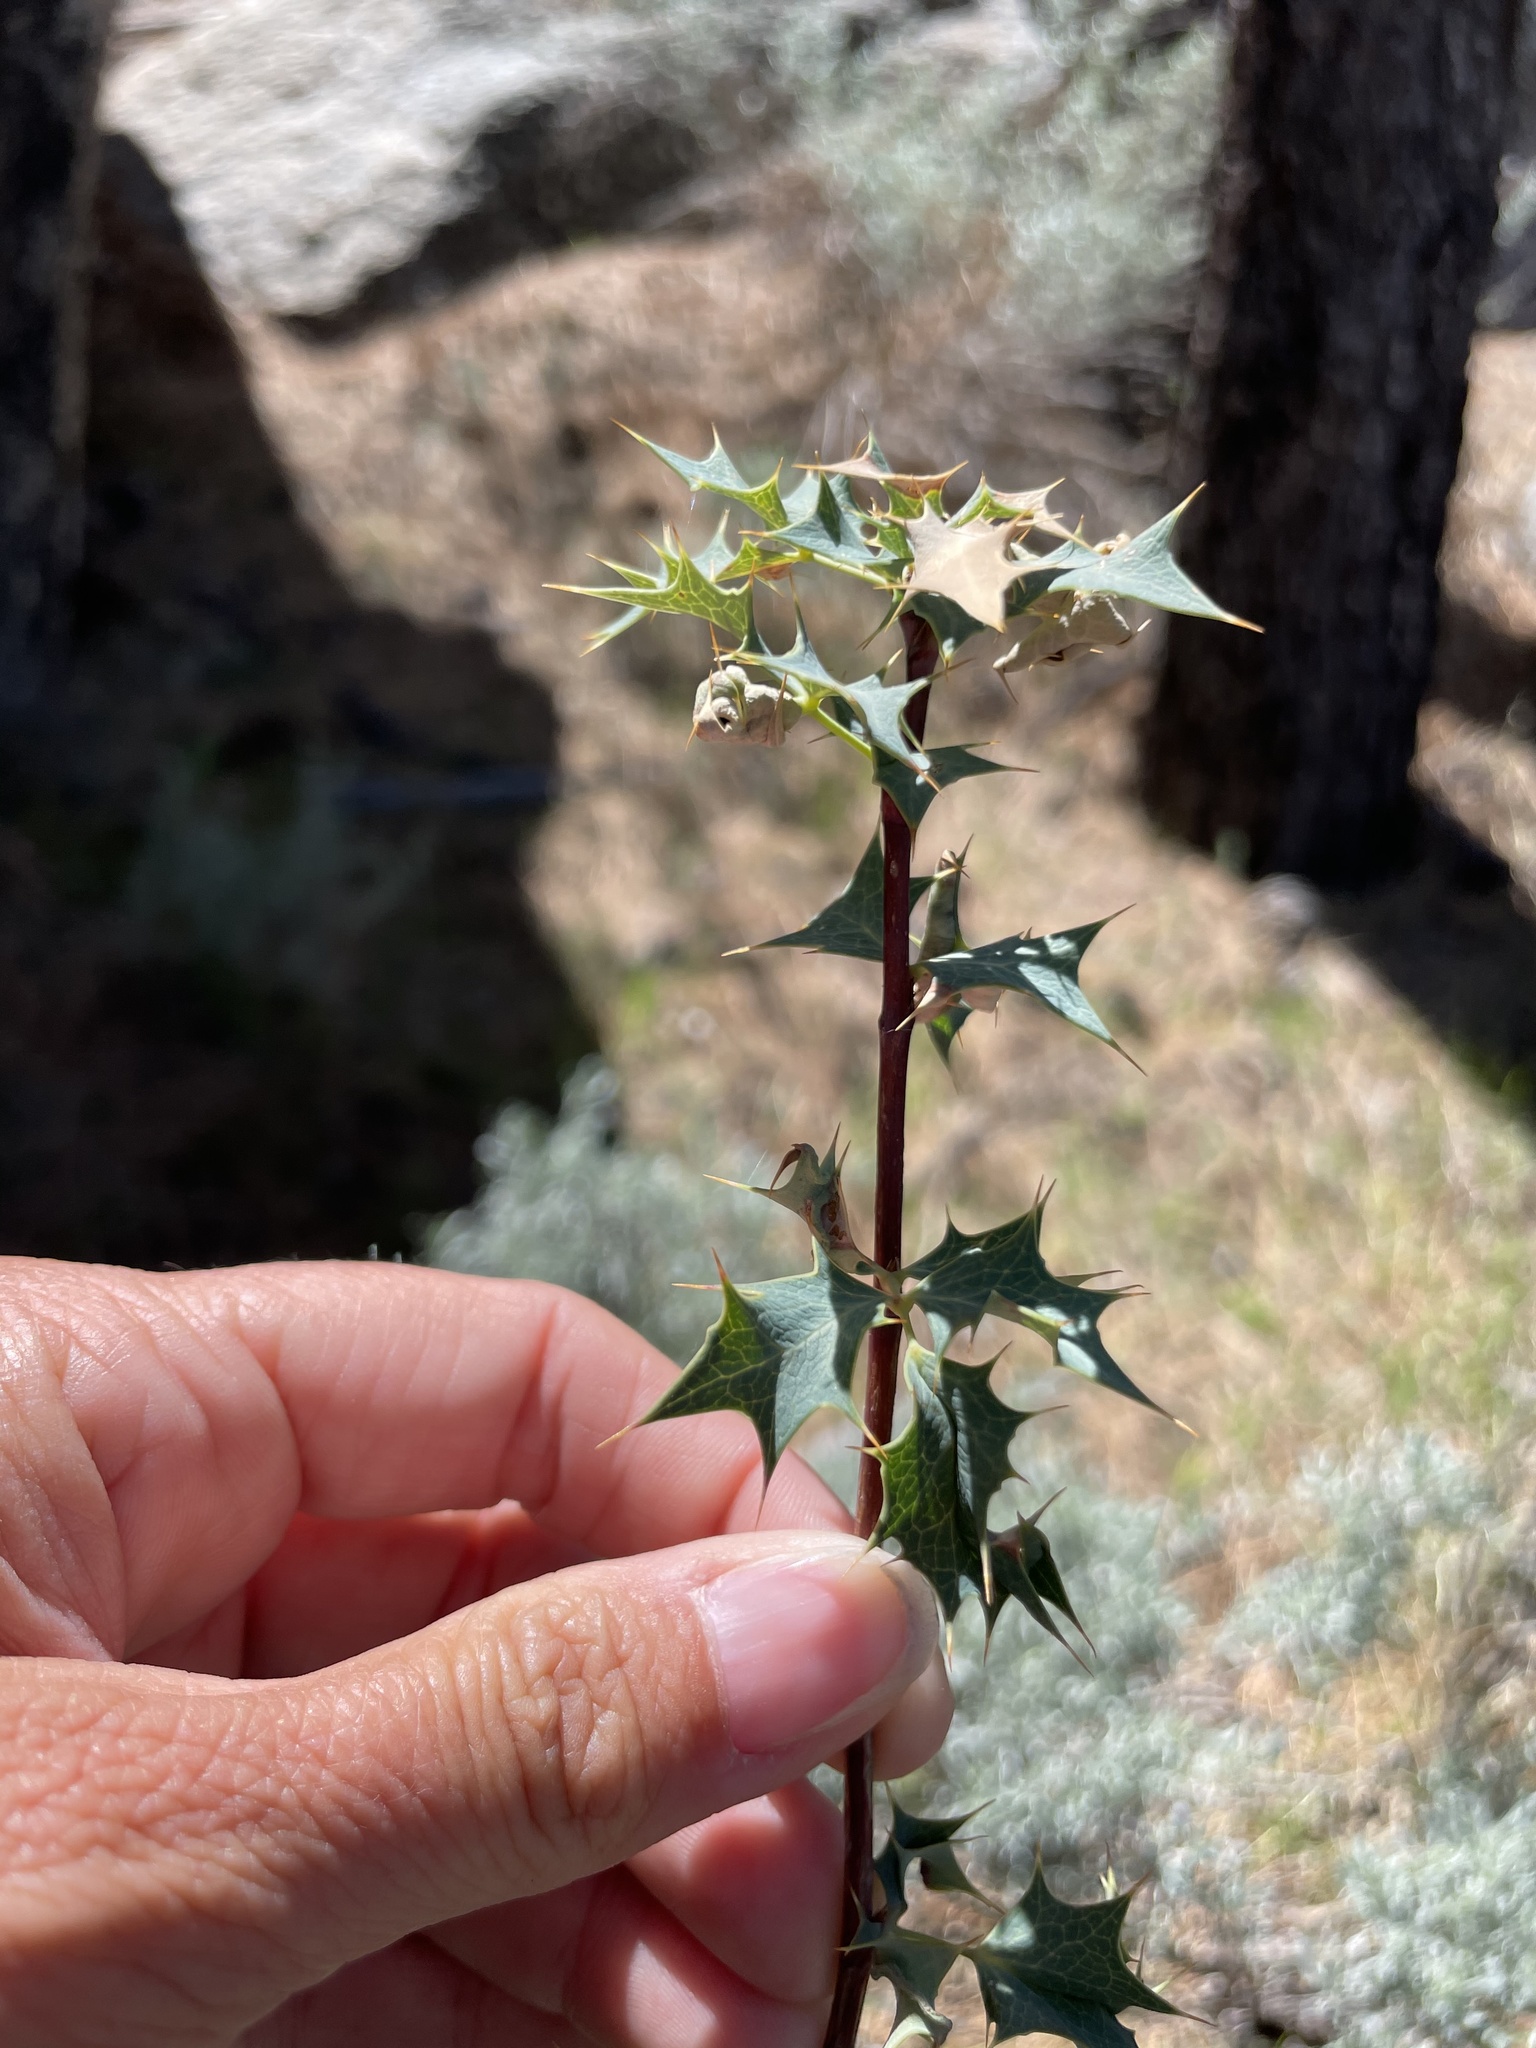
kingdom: Plantae
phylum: Tracheophyta
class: Magnoliopsida
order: Ranunculales
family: Berberidaceae
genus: Alloberberis
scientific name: Alloberberis fremontii
